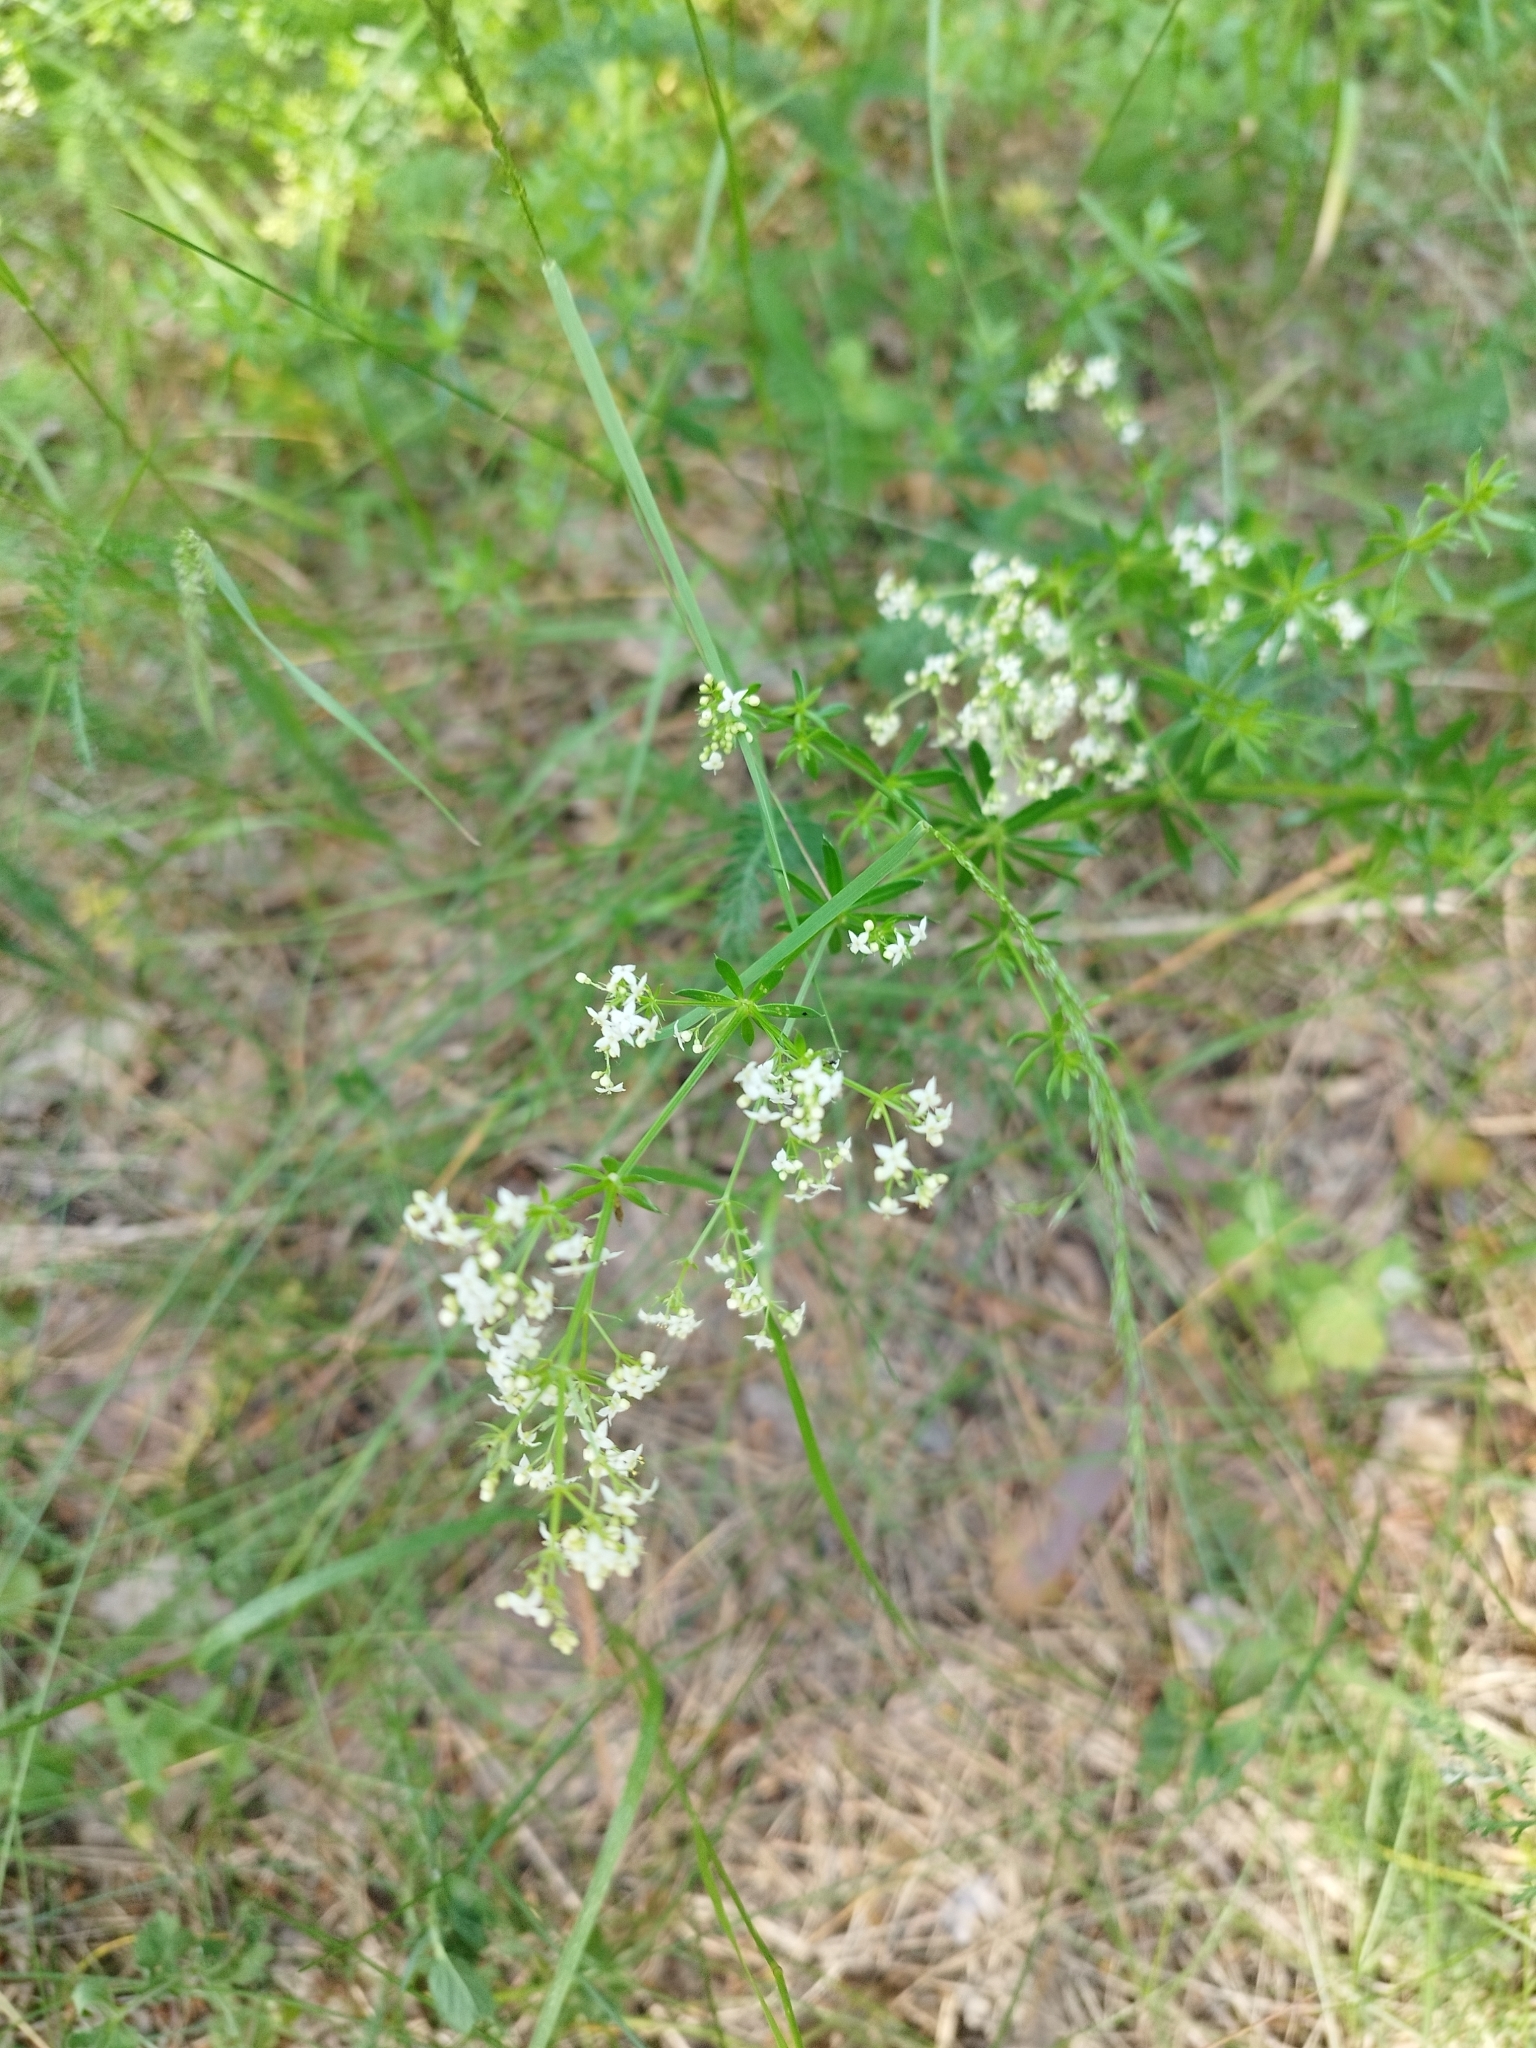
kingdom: Plantae
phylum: Tracheophyta
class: Magnoliopsida
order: Gentianales
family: Rubiaceae
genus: Galium
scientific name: Galium mollugo
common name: Hedge bedstraw
